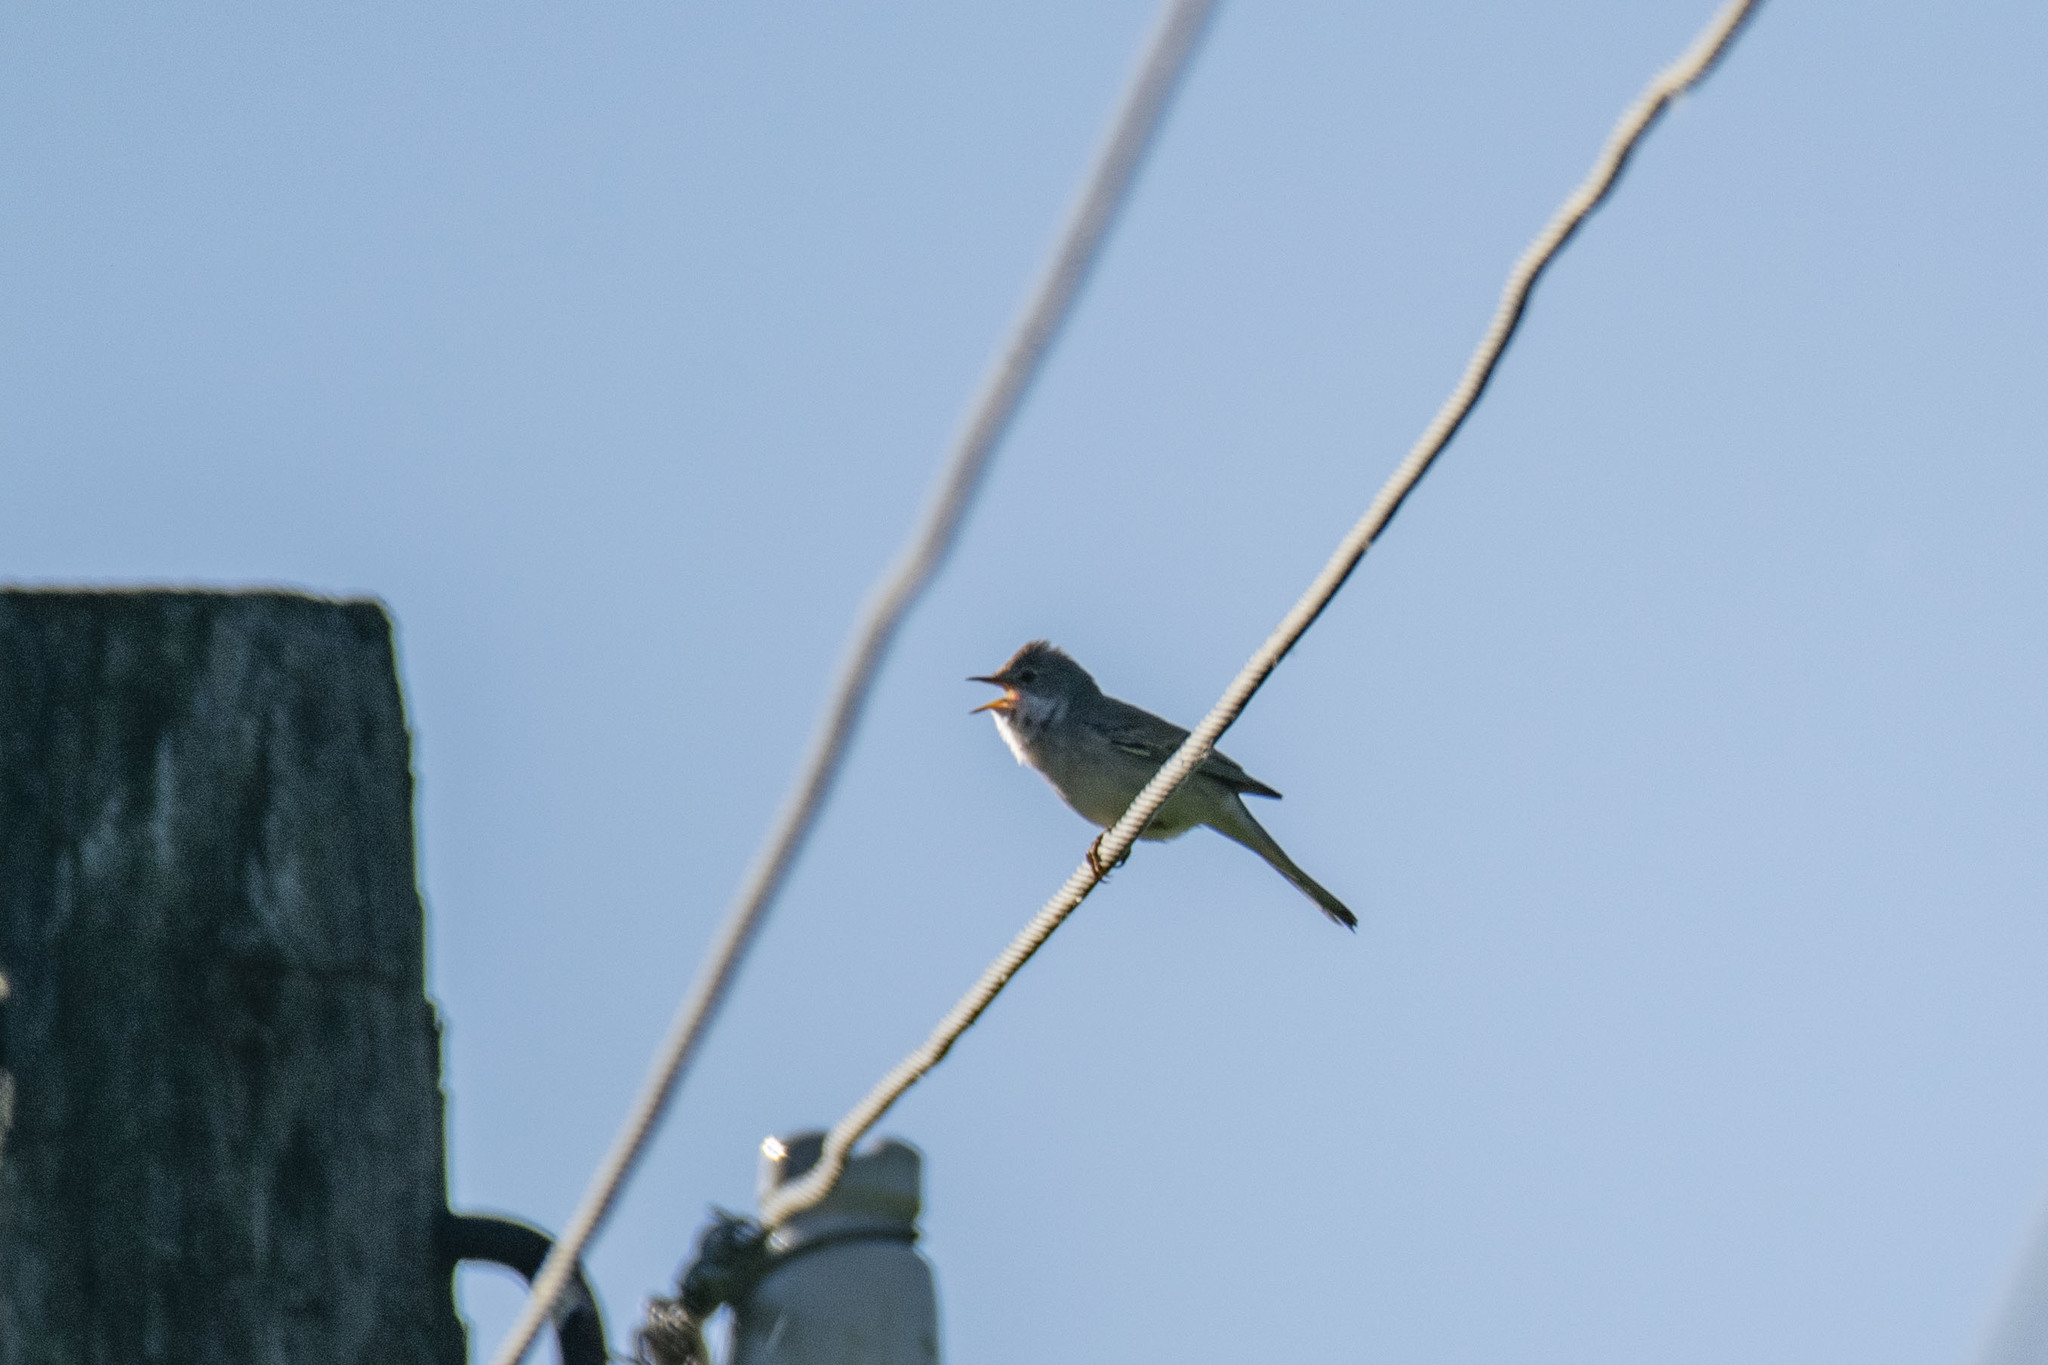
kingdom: Animalia
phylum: Chordata
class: Aves
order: Passeriformes
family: Sylviidae
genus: Sylvia
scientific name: Sylvia communis
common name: Common whitethroat
